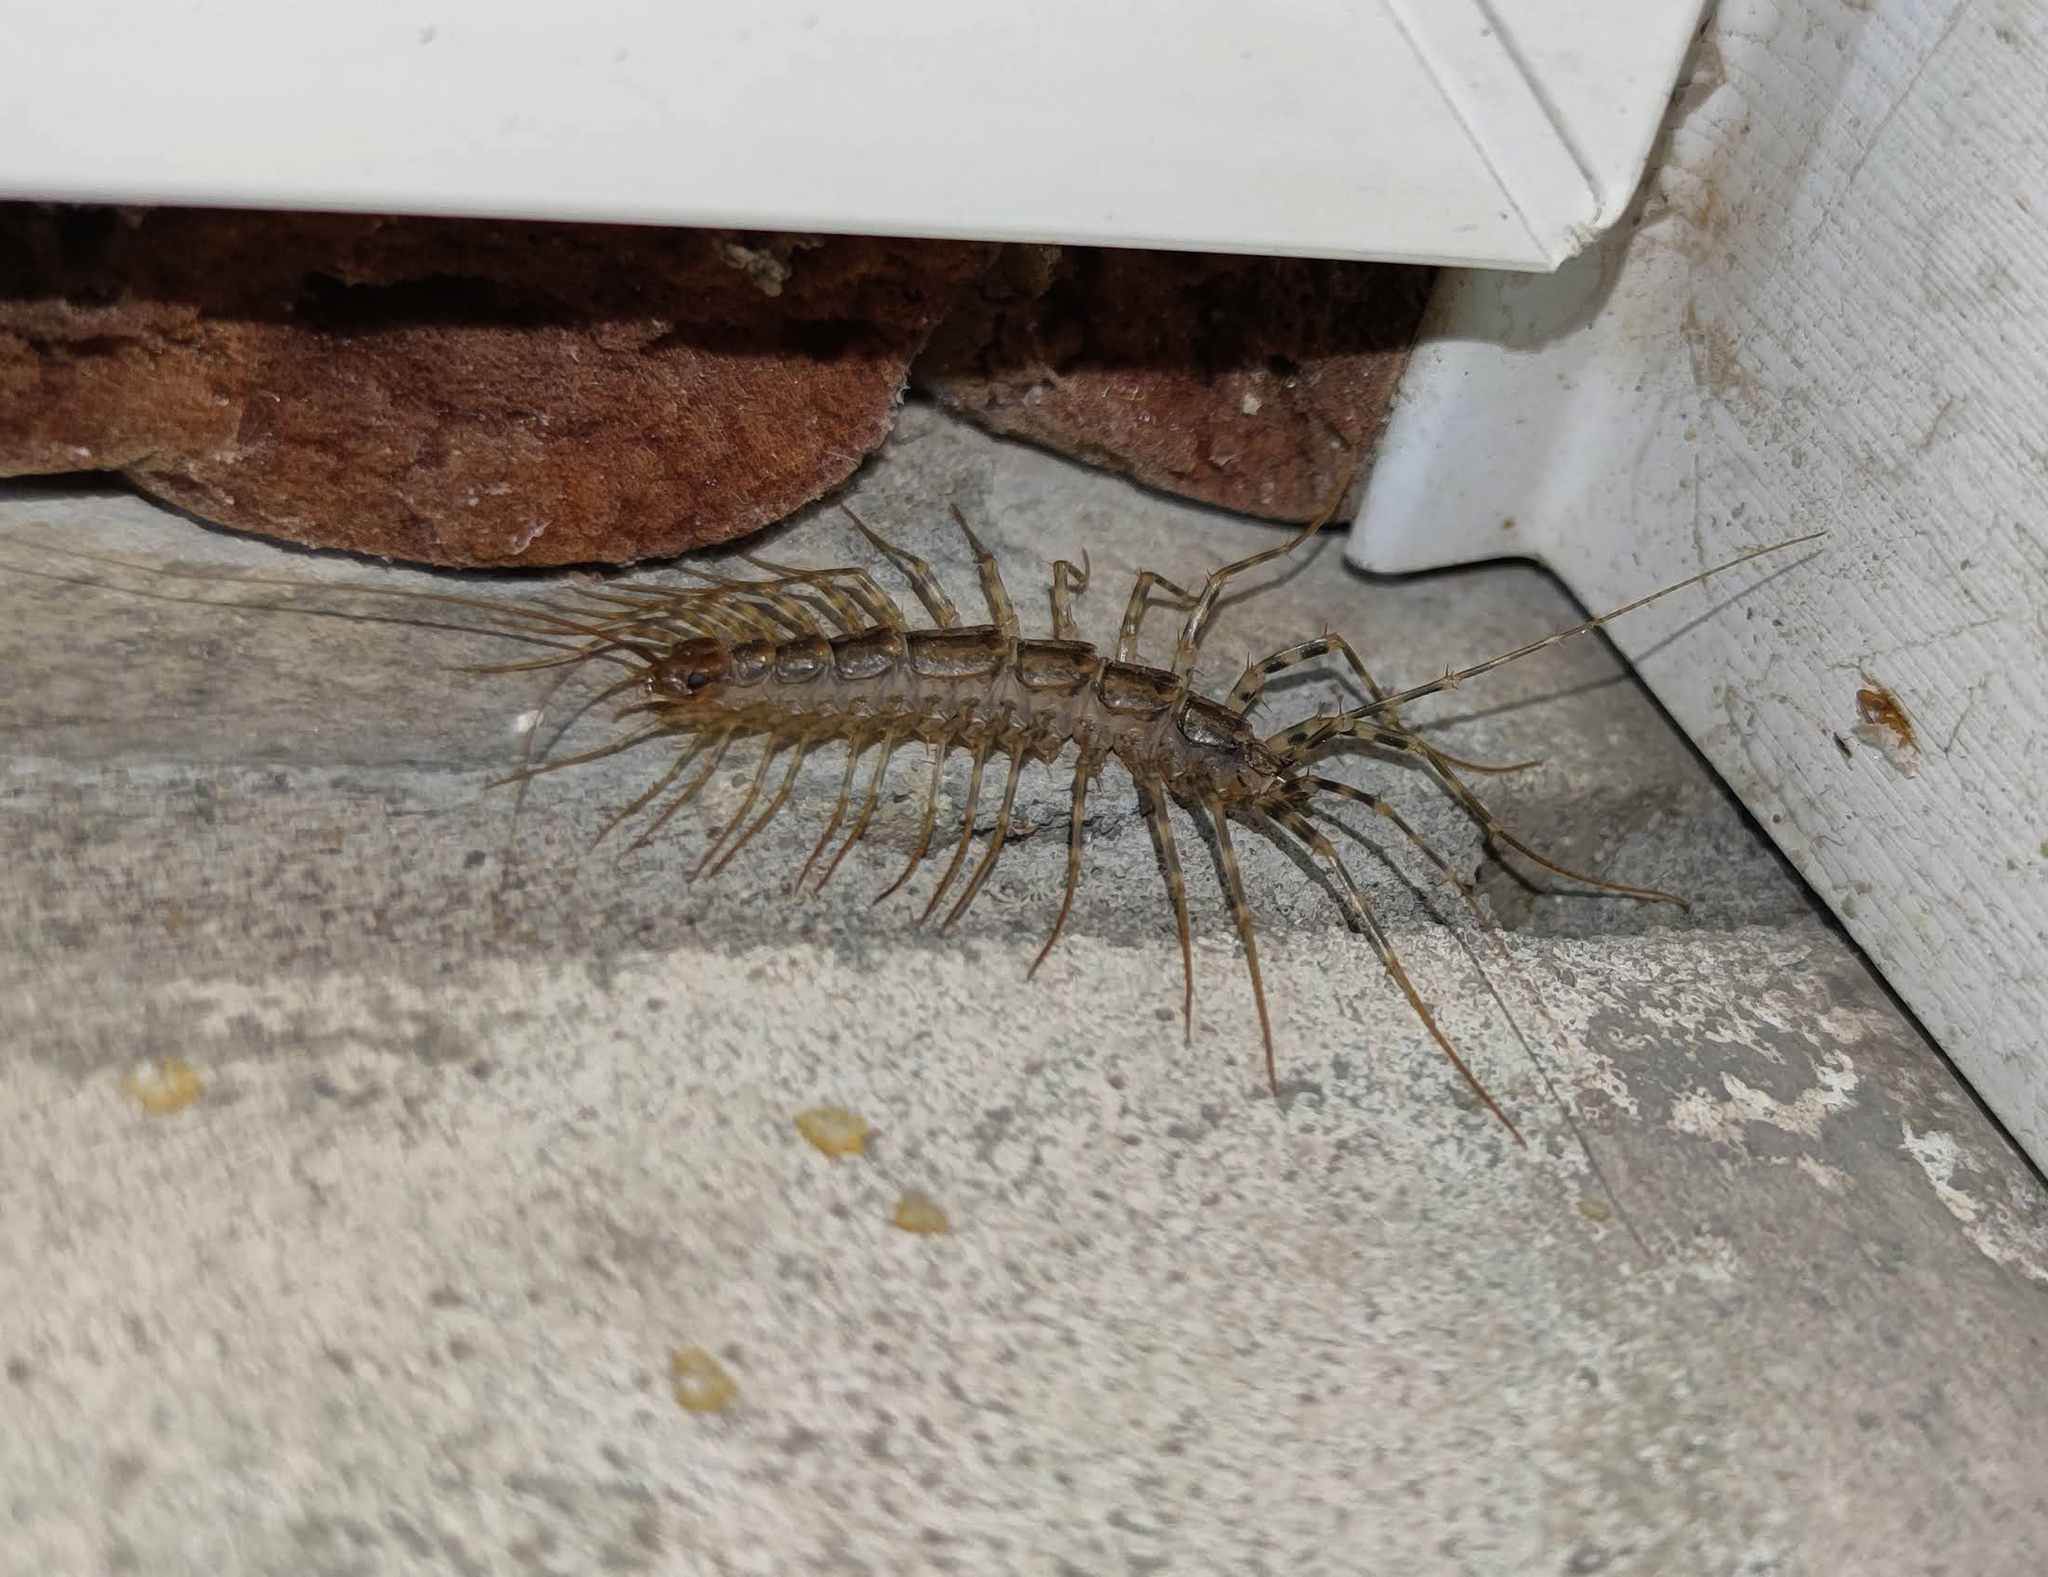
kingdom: Animalia
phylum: Arthropoda
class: Chilopoda
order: Scutigeromorpha
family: Scutigeridae
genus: Scutigera
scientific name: Scutigera coleoptrata
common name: House centipede
